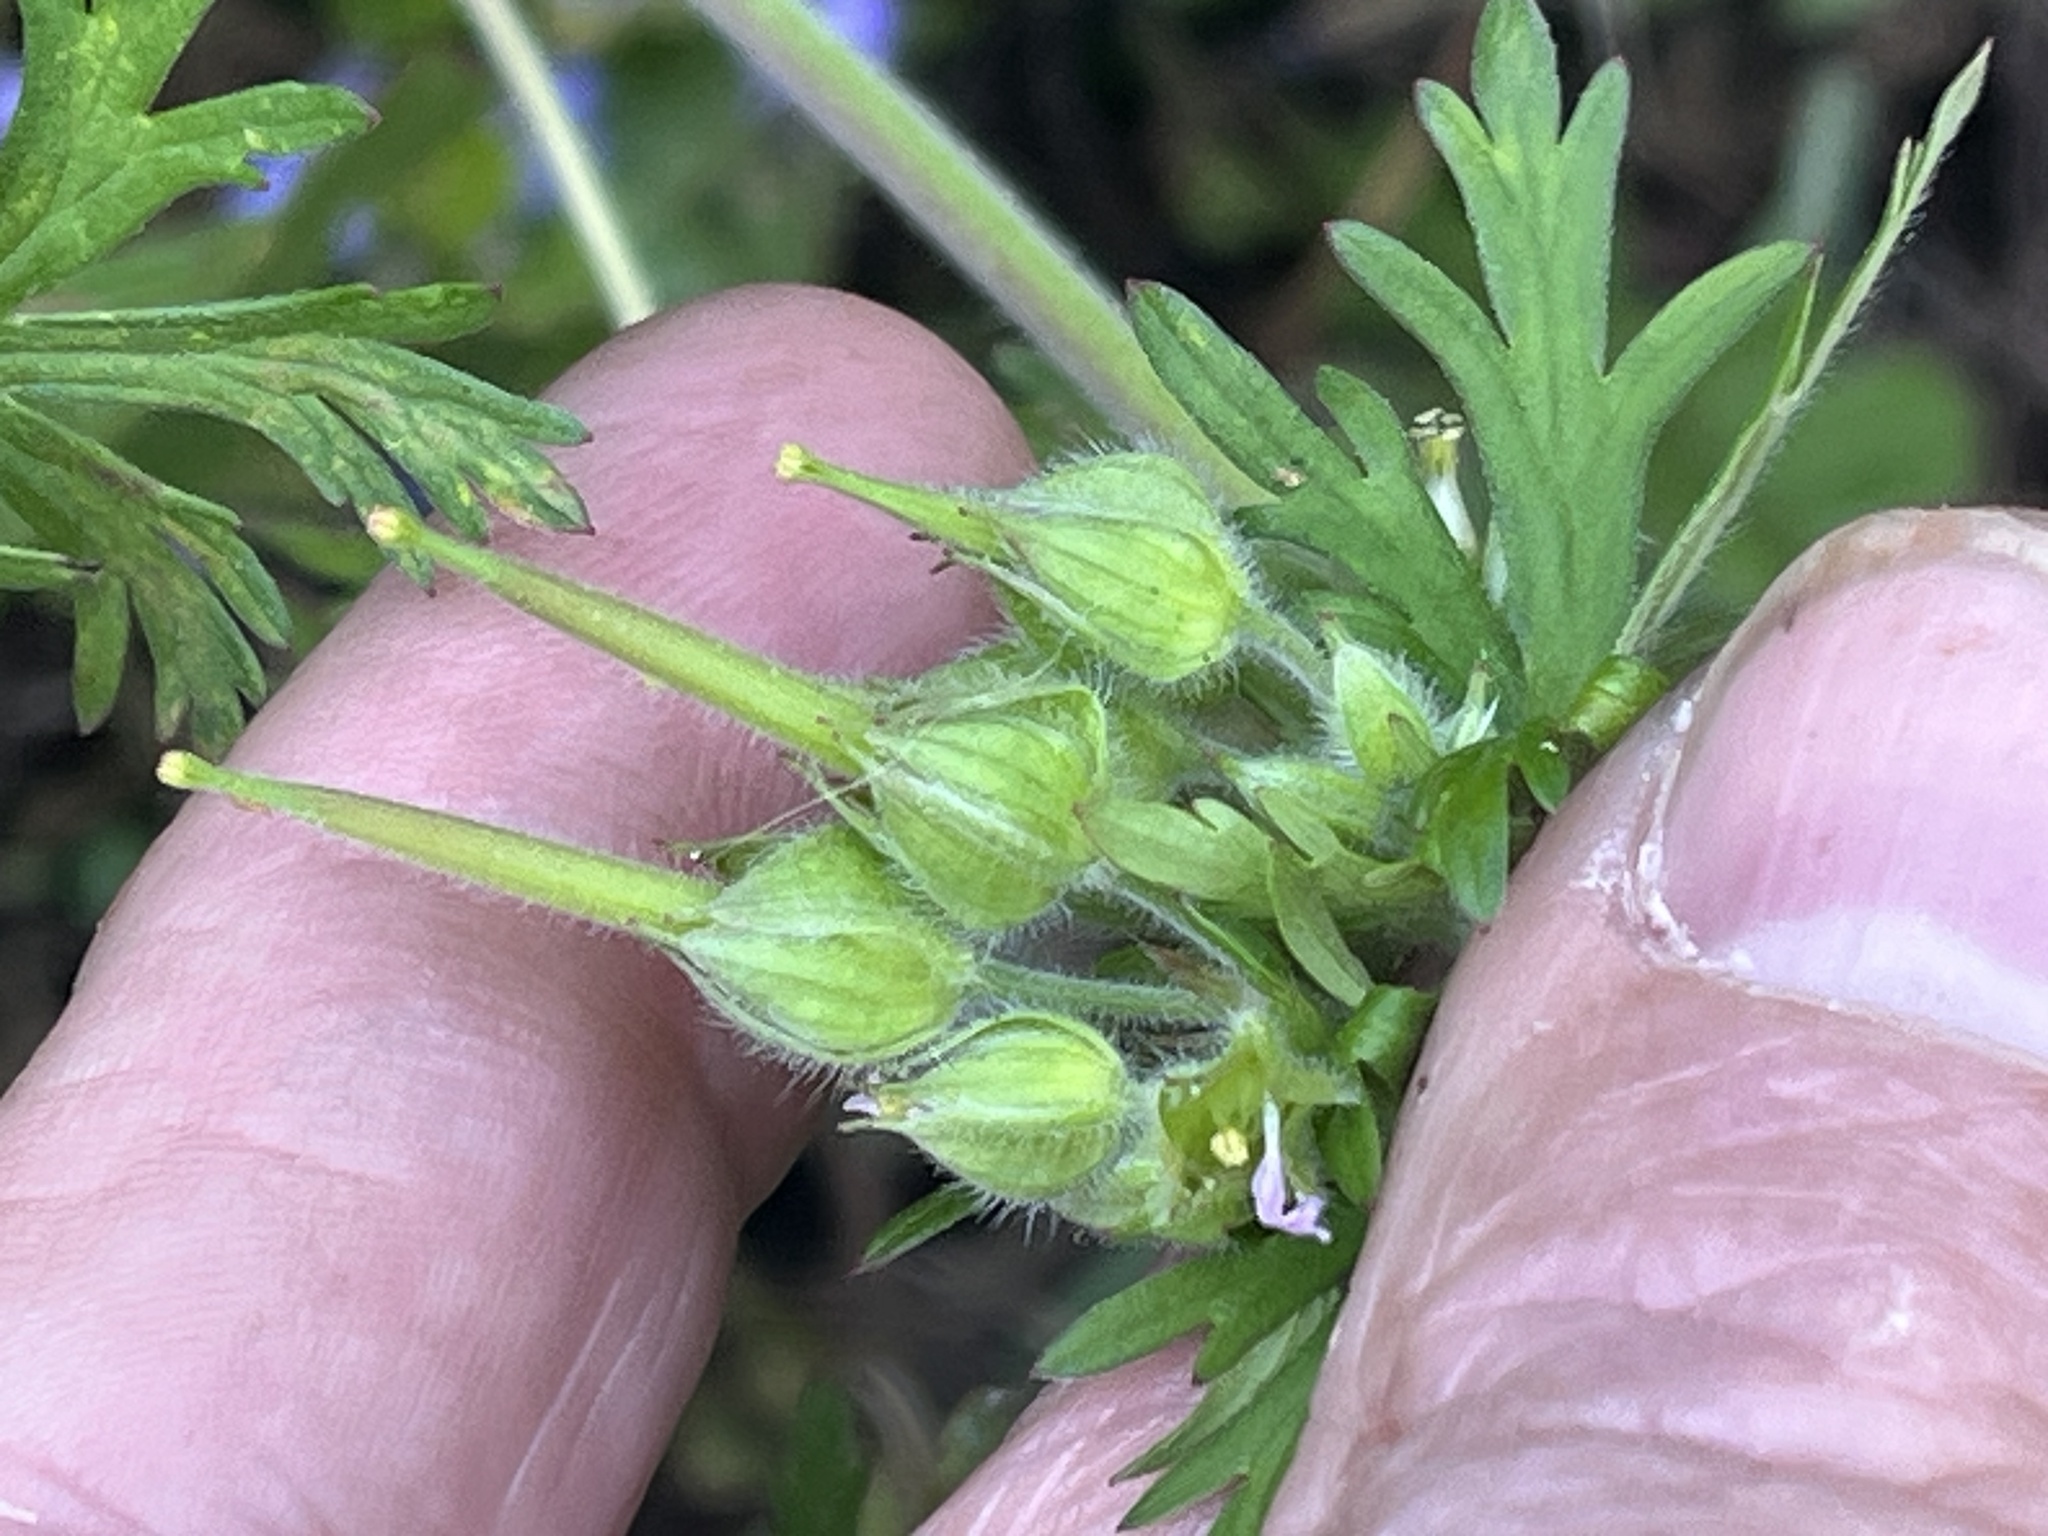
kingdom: Plantae
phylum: Tracheophyta
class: Magnoliopsida
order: Geraniales
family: Geraniaceae
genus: Geranium
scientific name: Geranium carolinianum
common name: Carolina crane's-bill
